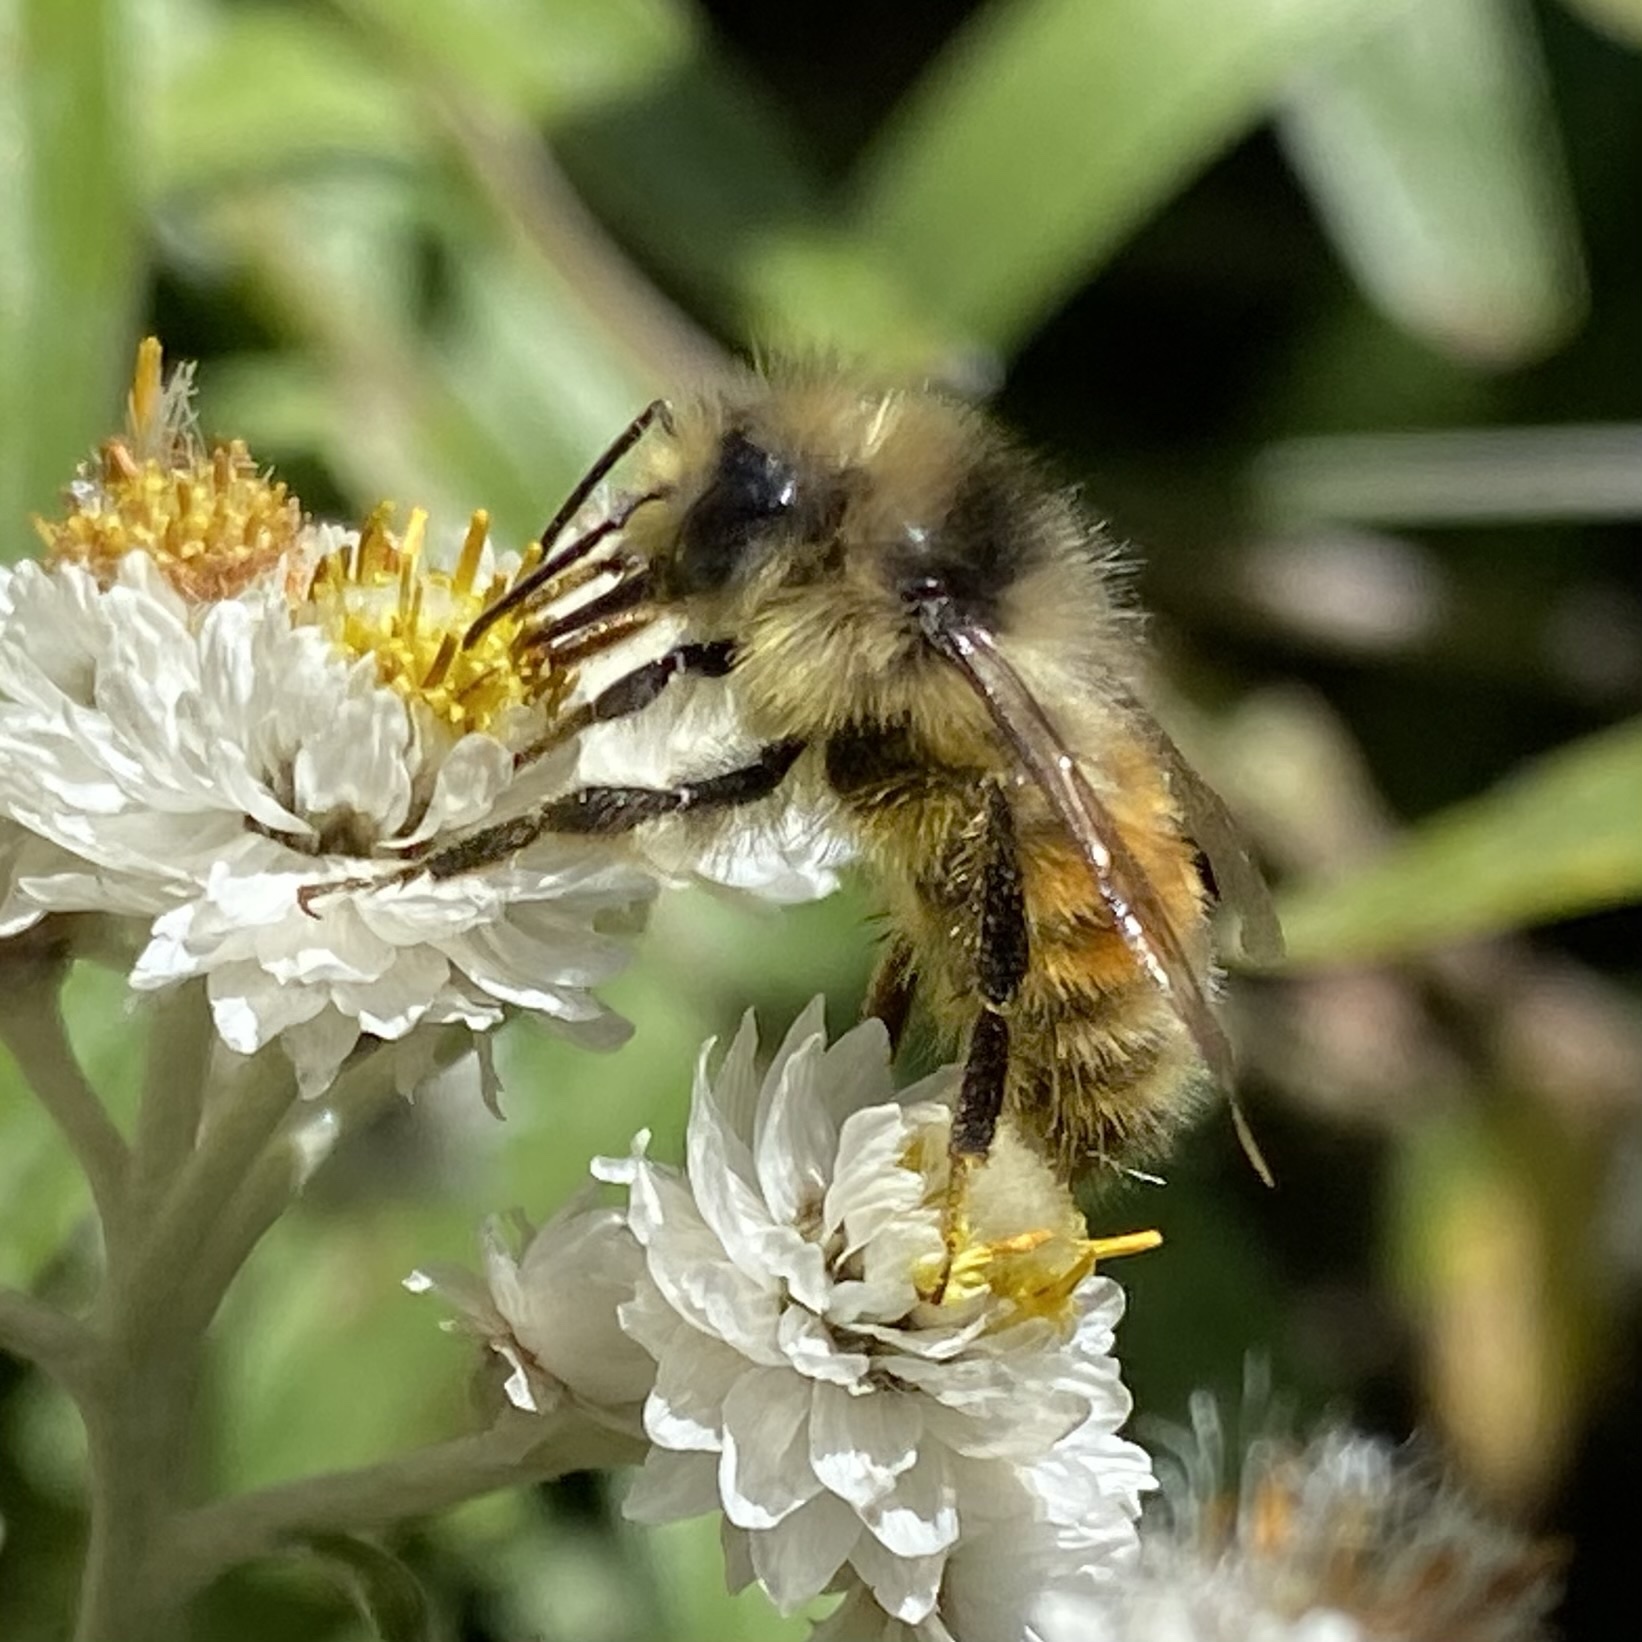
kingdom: Animalia
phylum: Arthropoda
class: Insecta
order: Hymenoptera
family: Apidae
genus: Bombus
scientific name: Bombus sylvicola
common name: Forest bumble bee
